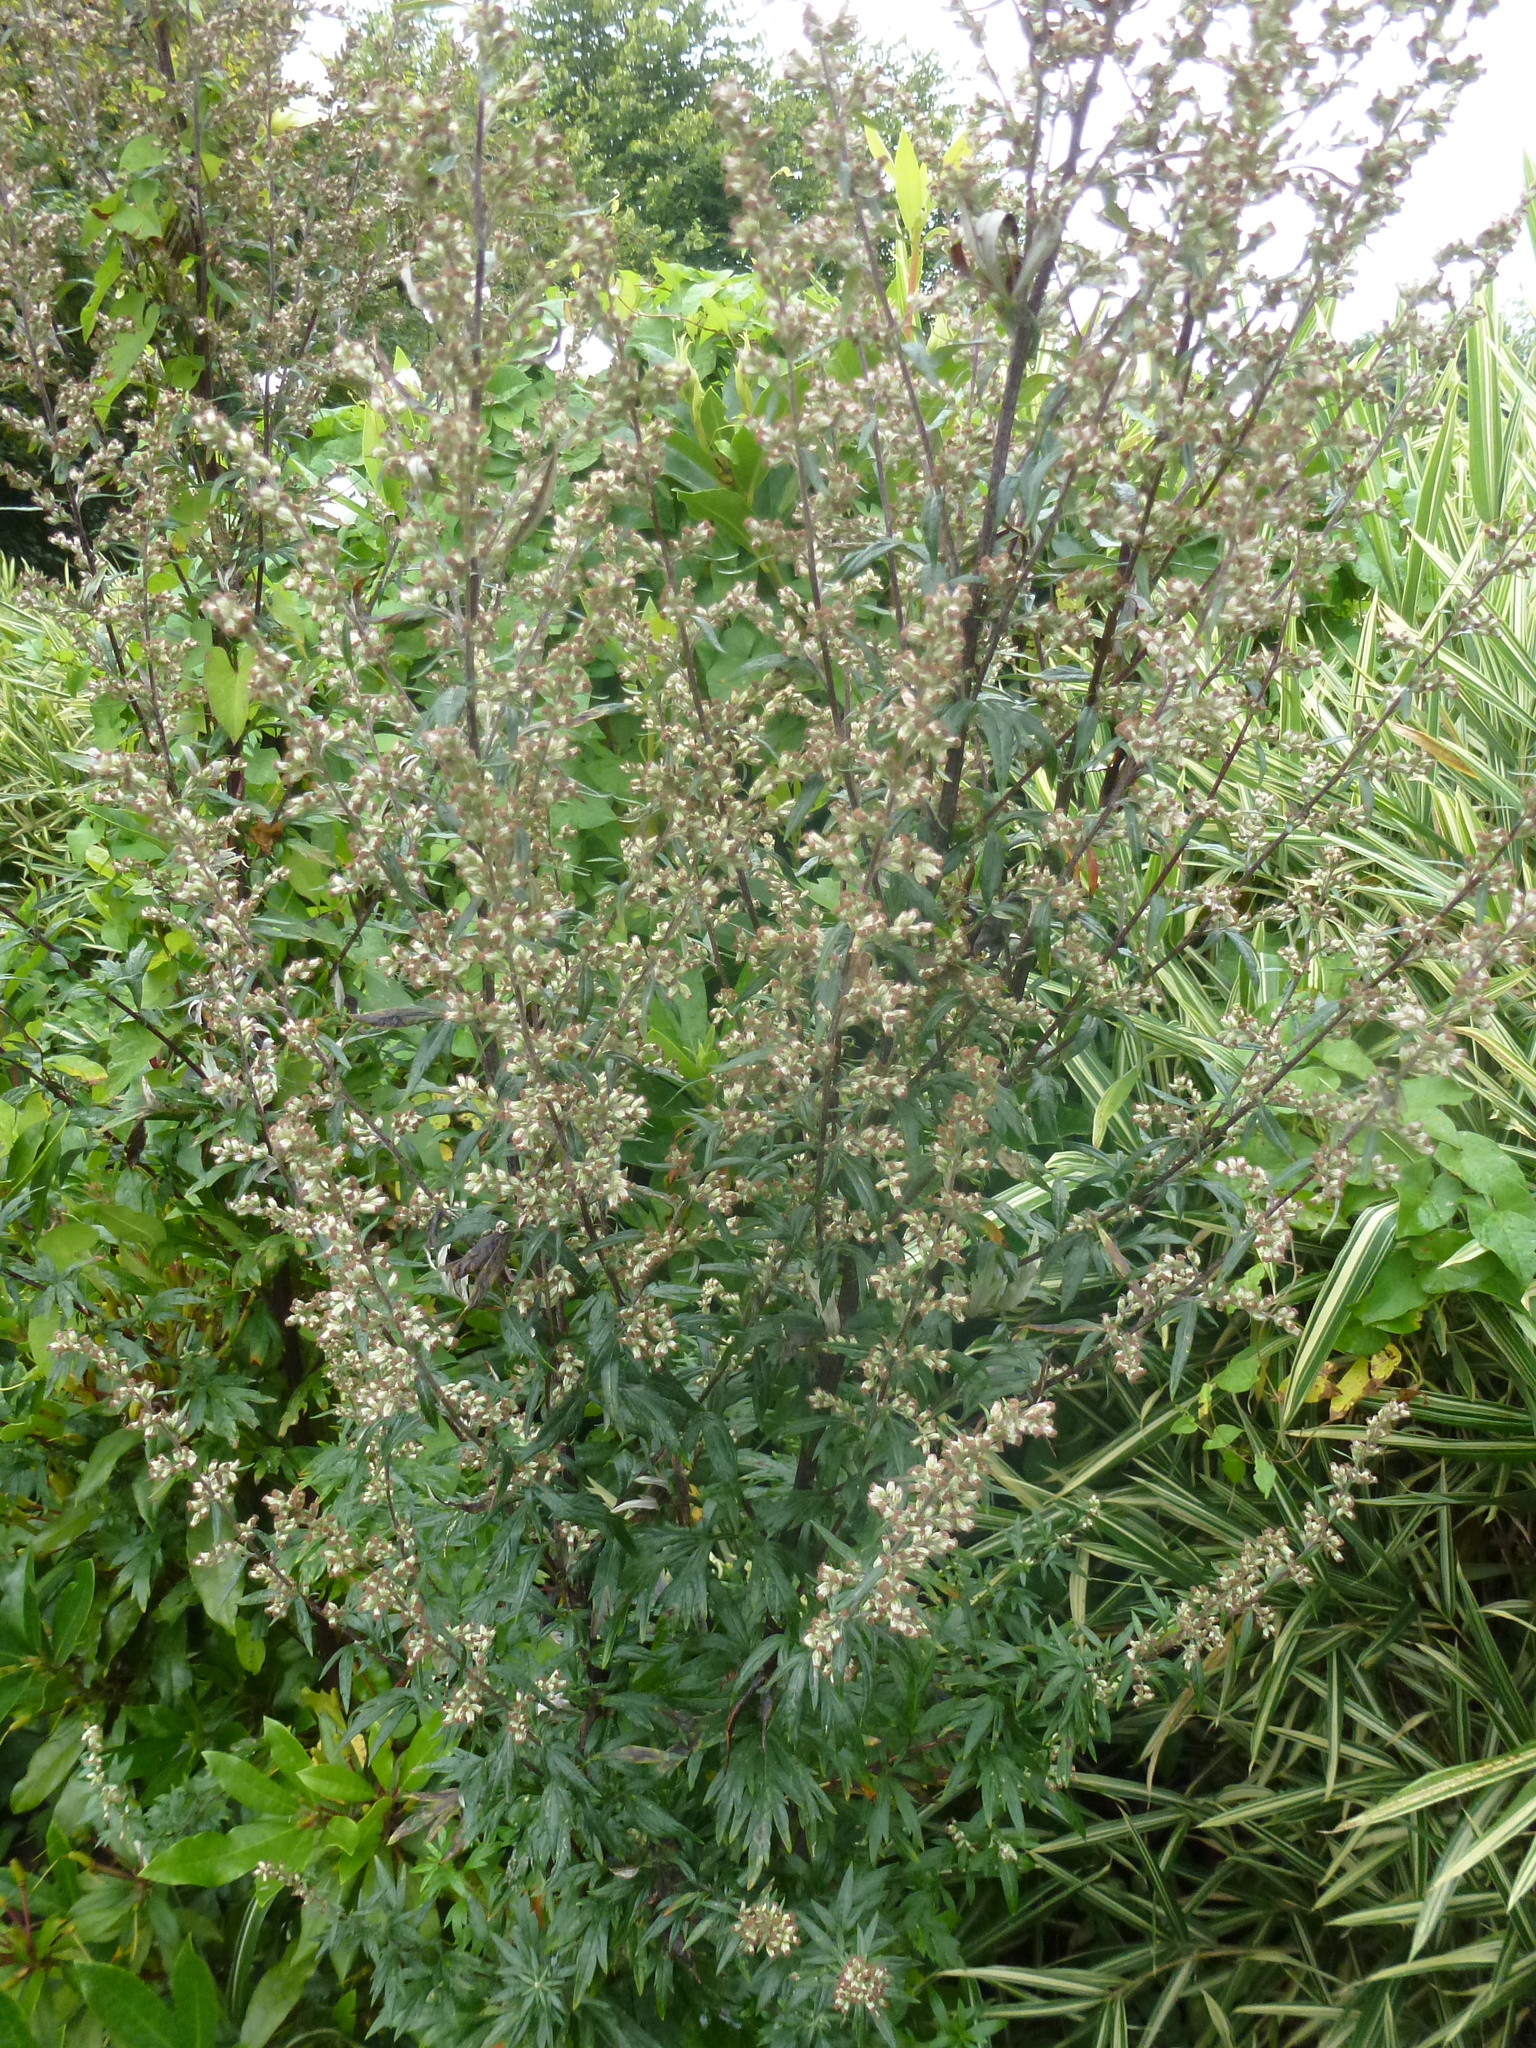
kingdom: Plantae
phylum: Tracheophyta
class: Magnoliopsida
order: Asterales
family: Asteraceae
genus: Artemisia
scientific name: Artemisia vulgaris
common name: Mugwort
